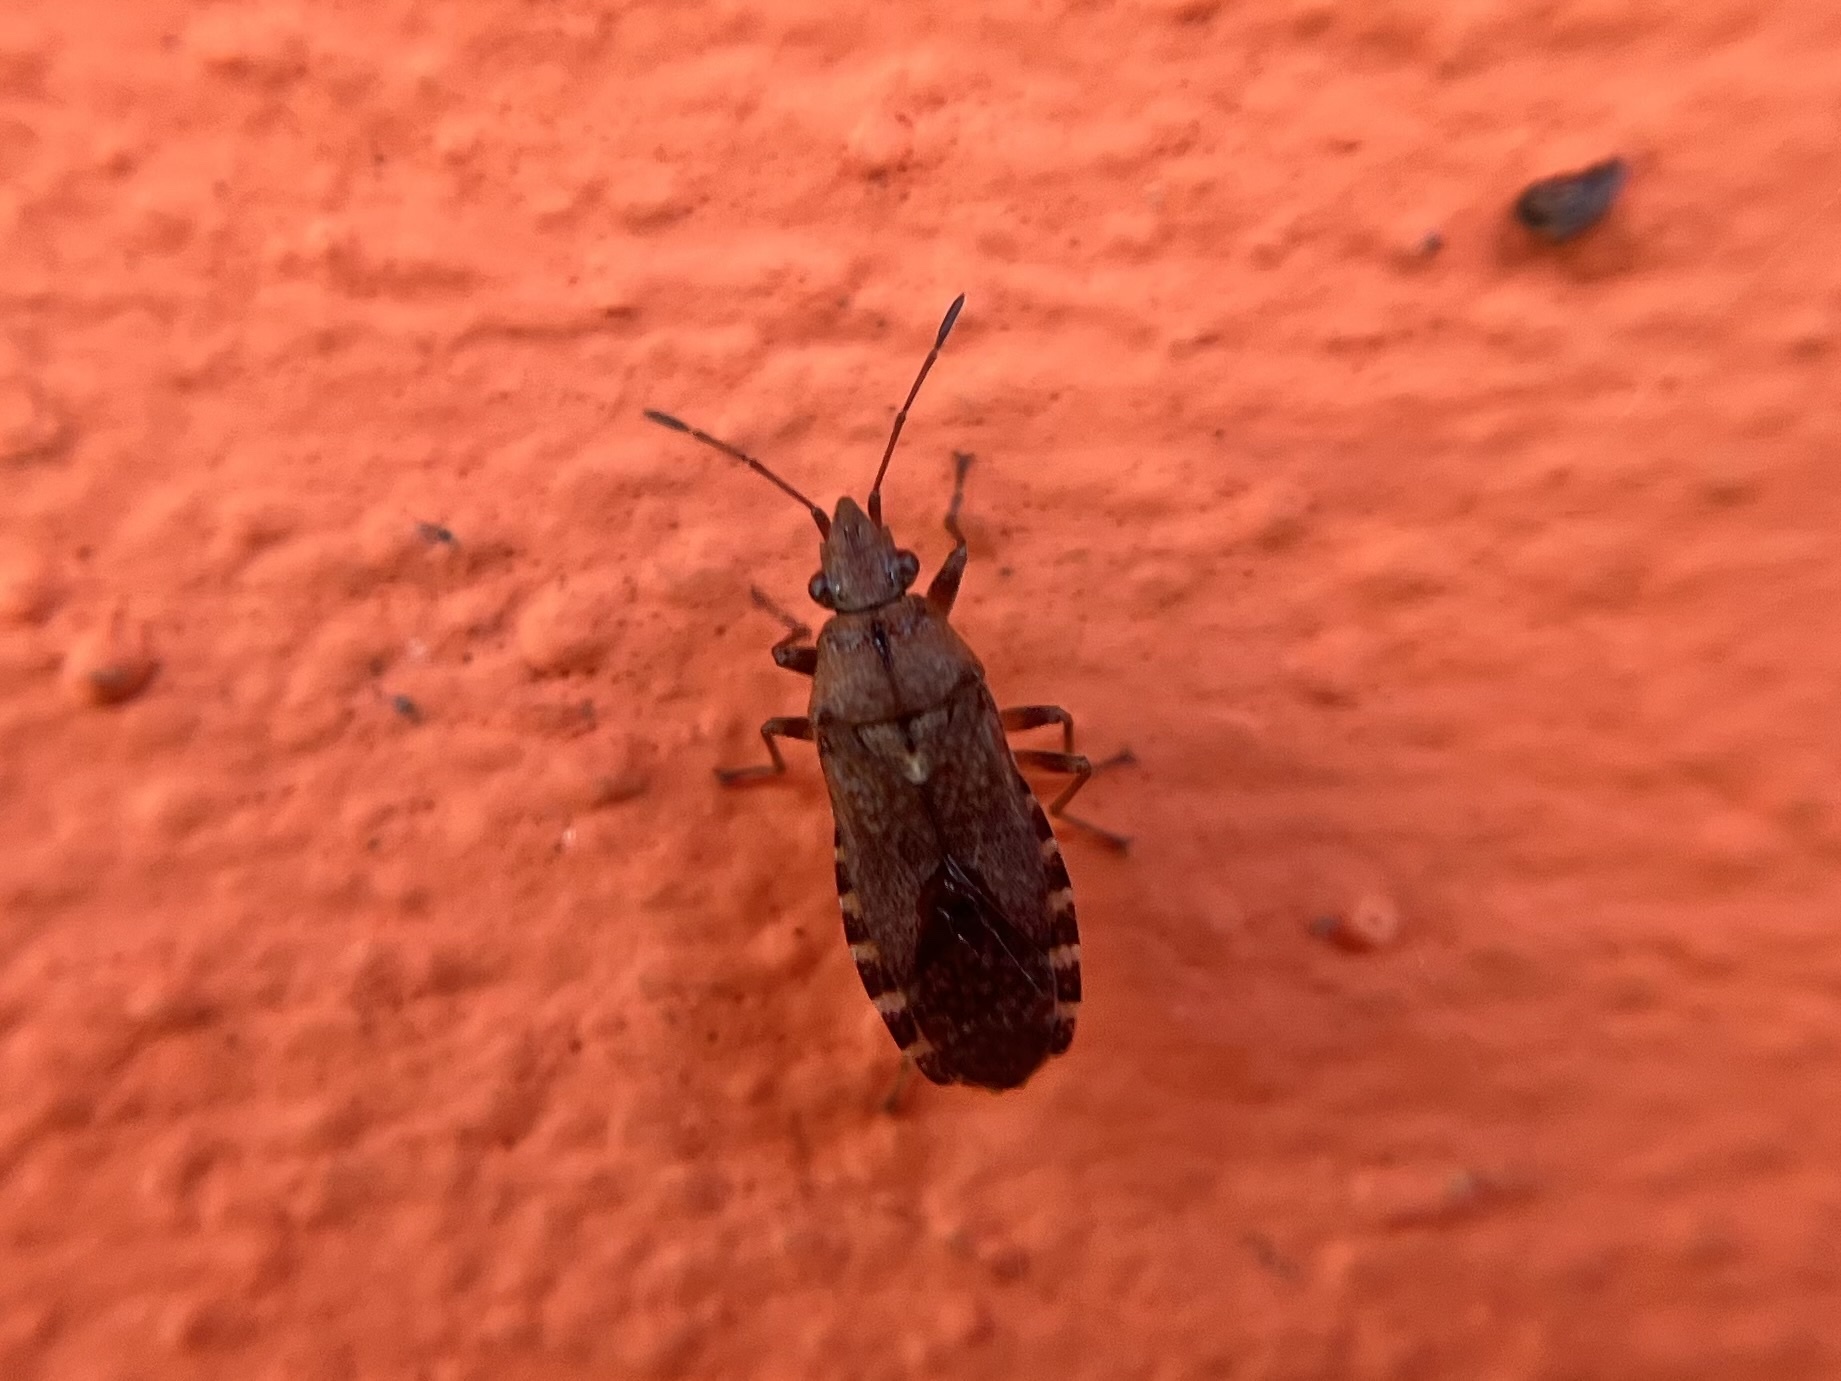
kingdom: Animalia
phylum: Arthropoda
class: Insecta
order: Hemiptera
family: Lygaeidae
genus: Orsillus
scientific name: Orsillus depressus
